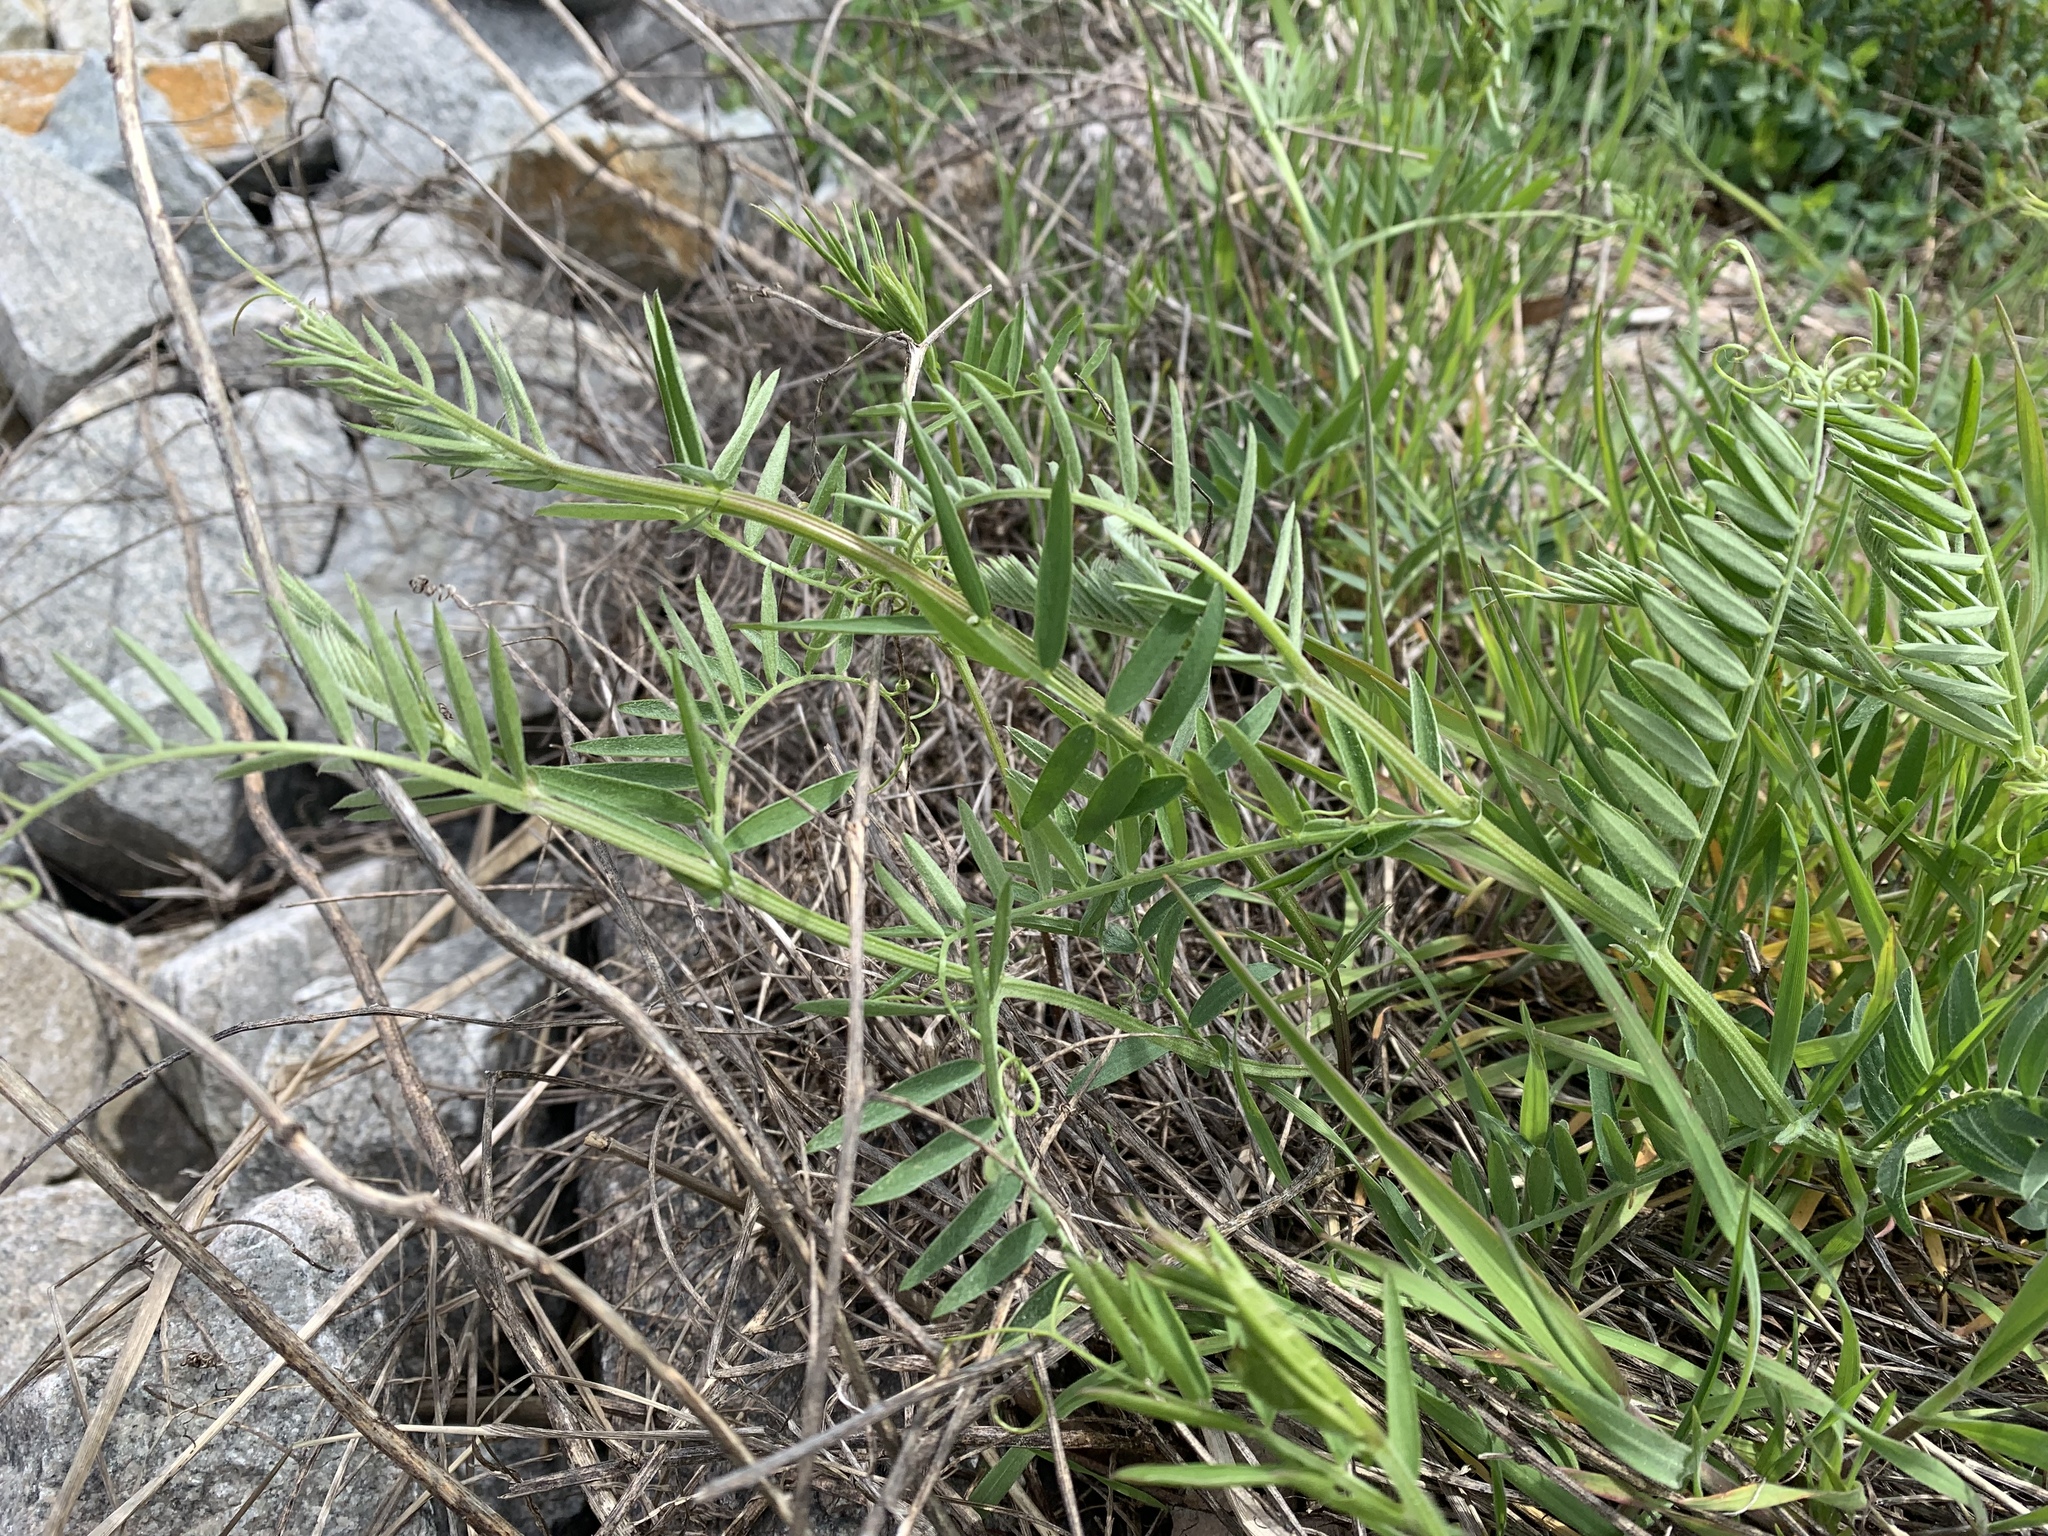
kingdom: Plantae
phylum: Tracheophyta
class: Magnoliopsida
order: Fabales
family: Fabaceae
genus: Vicia
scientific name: Vicia cracca
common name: Bird vetch
